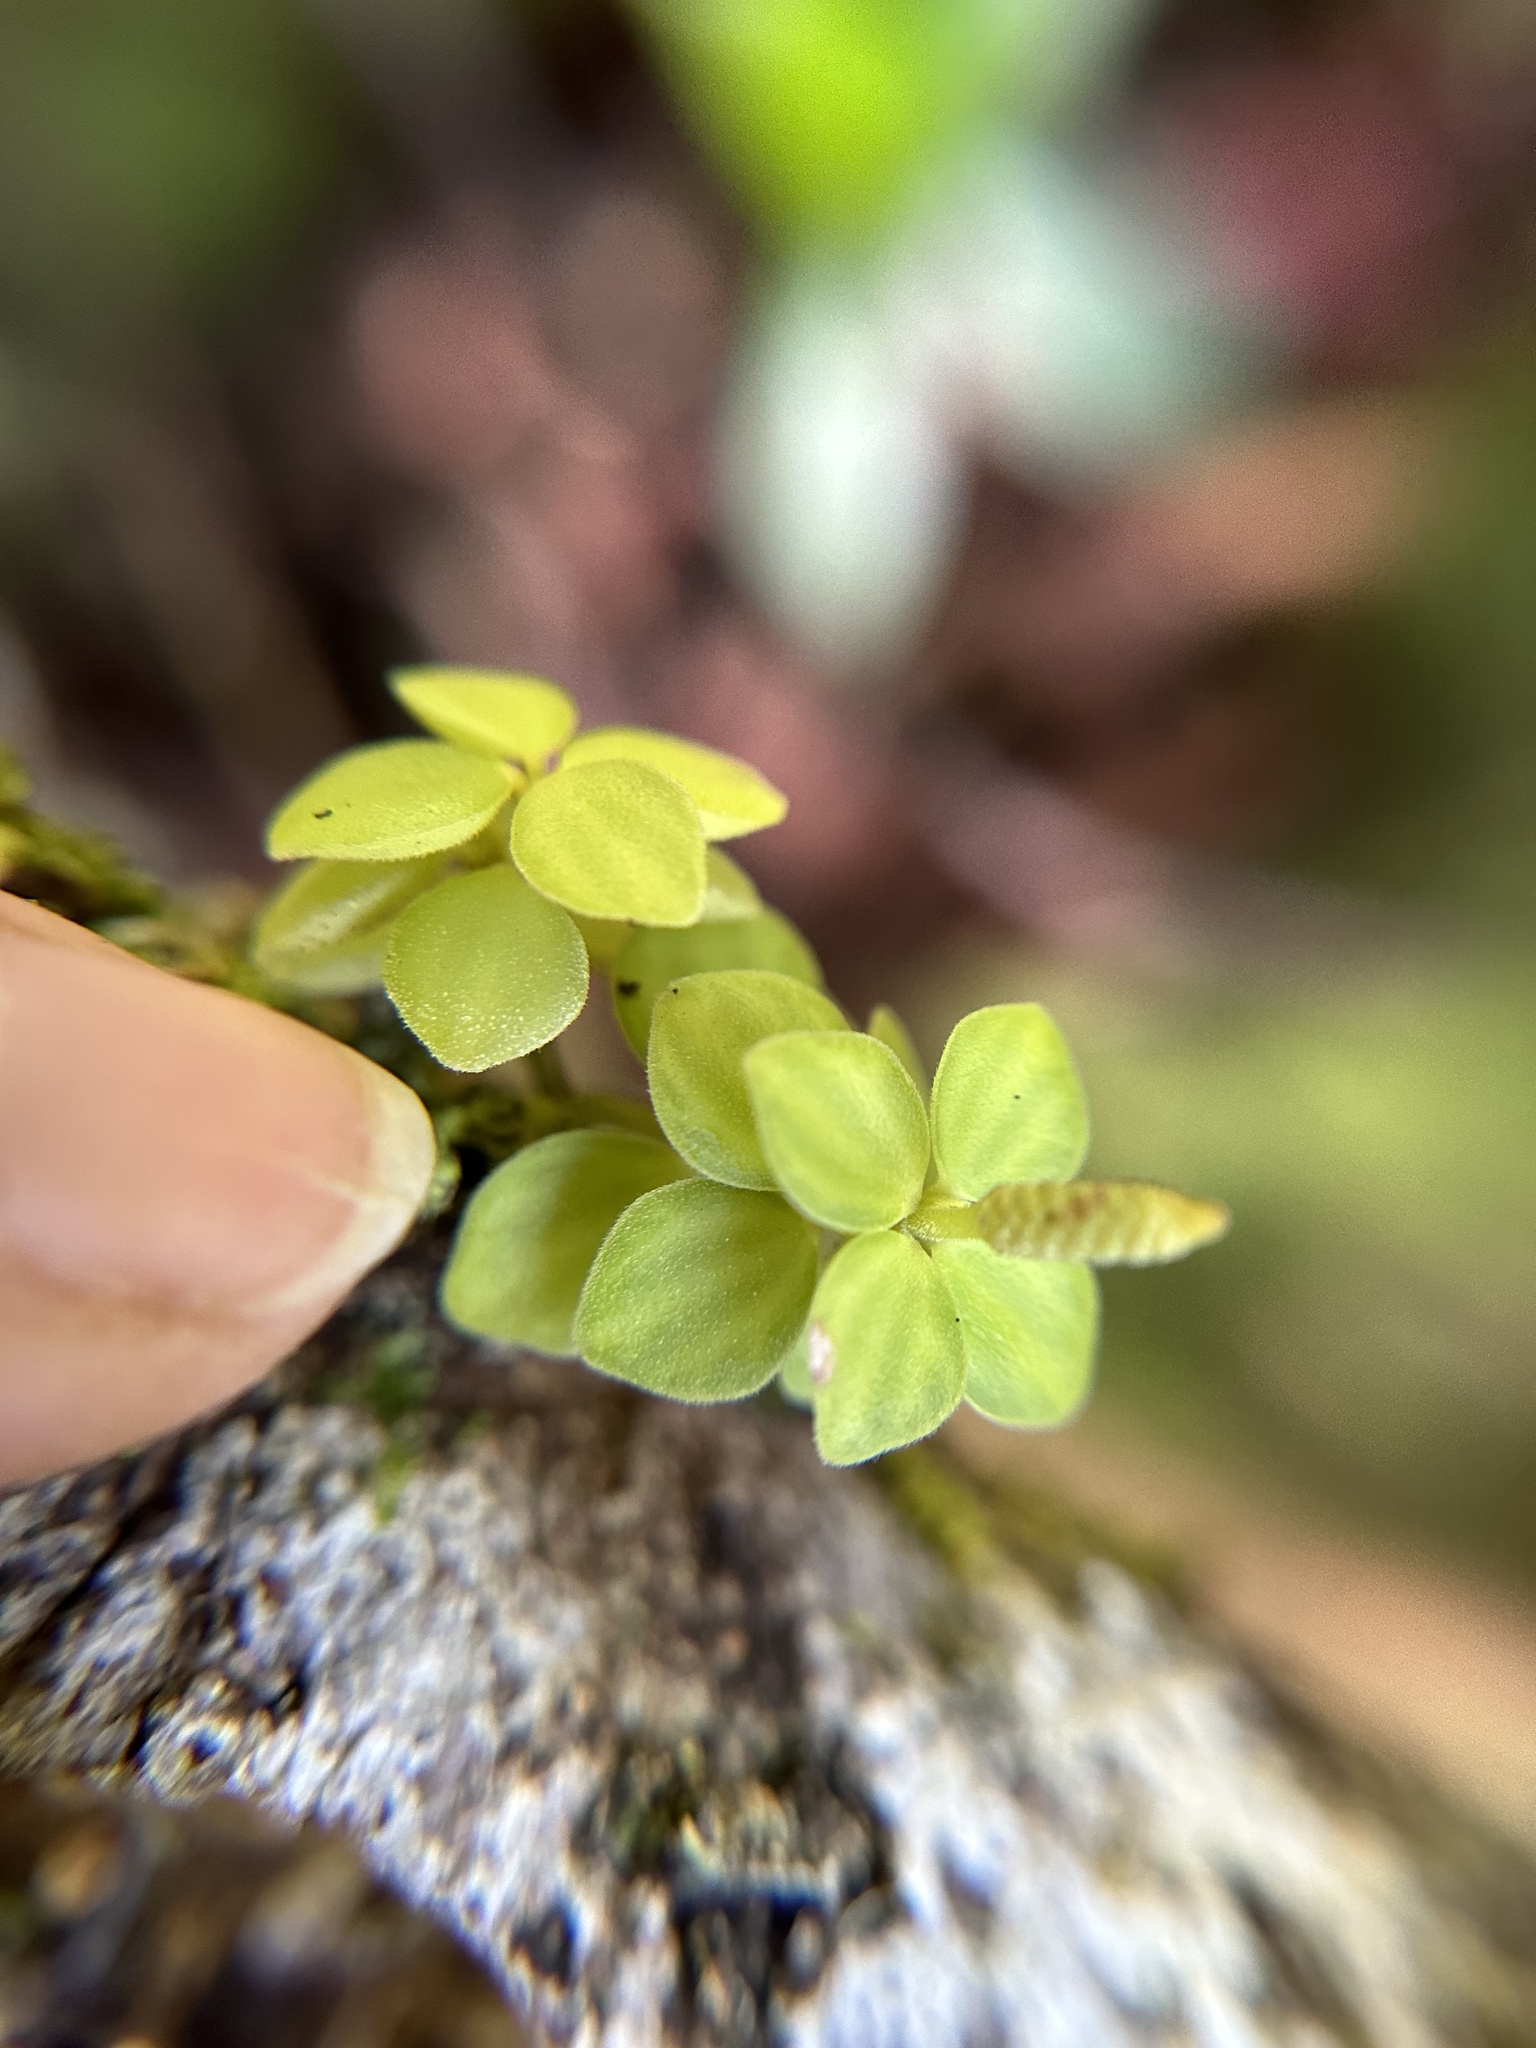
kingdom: Plantae
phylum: Tracheophyta
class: Magnoliopsida
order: Piperales
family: Piperaceae
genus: Peperomia
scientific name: Peperomia tetraphylla
